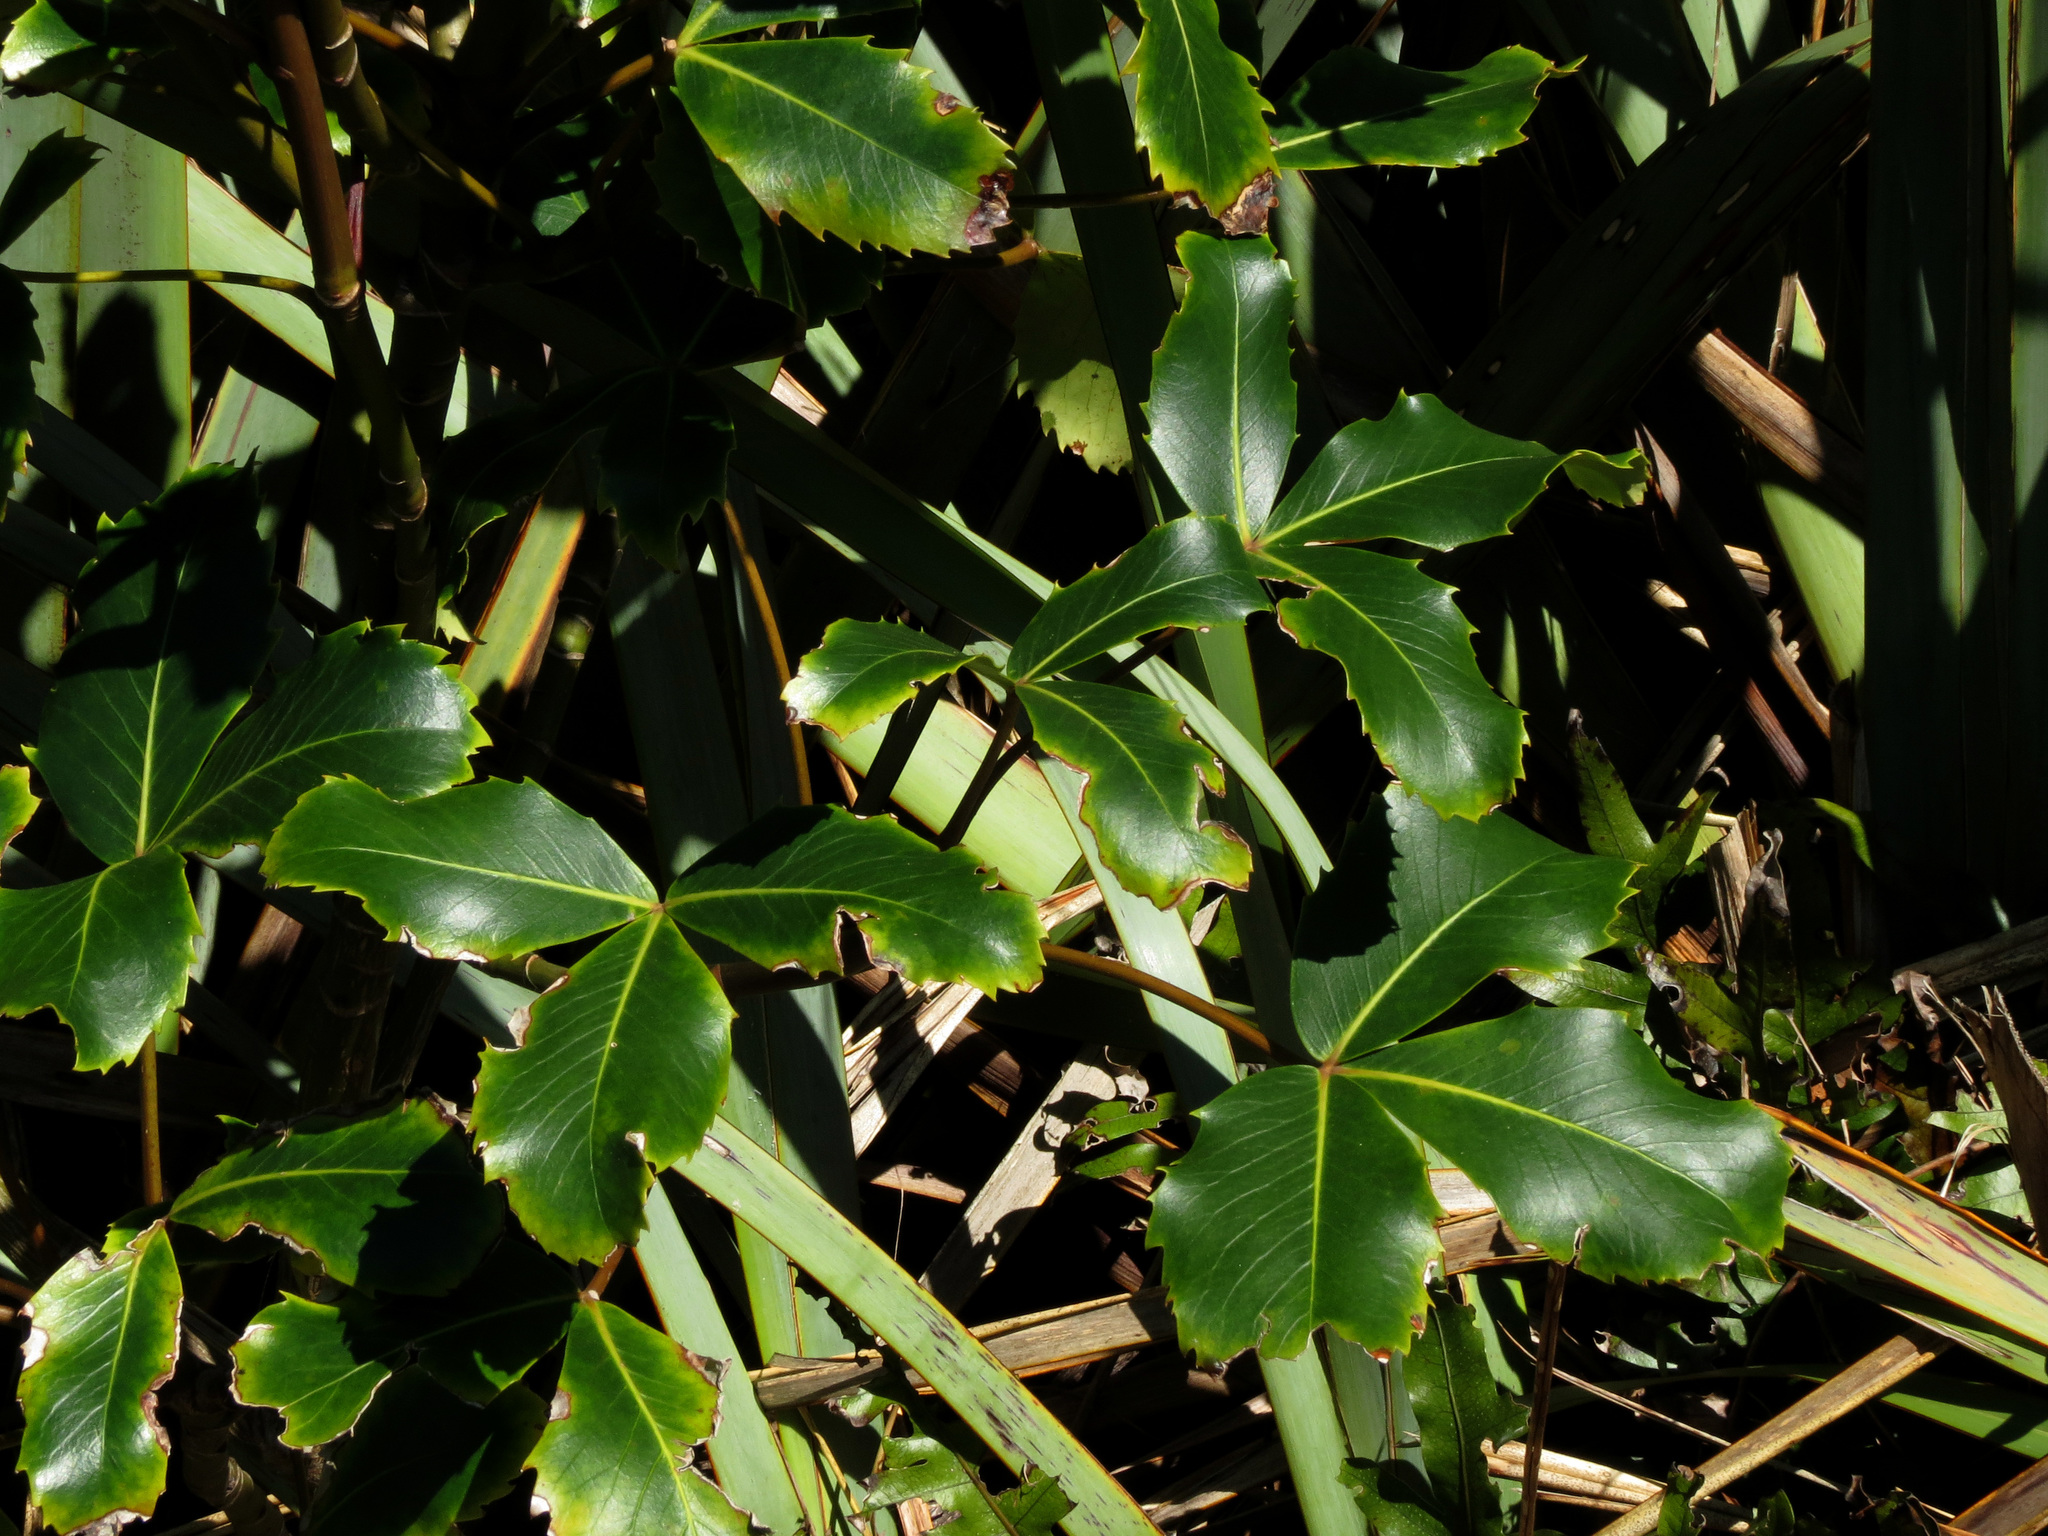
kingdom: Plantae
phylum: Tracheophyta
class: Magnoliopsida
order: Apiales
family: Araliaceae
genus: Neopanax
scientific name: Neopanax colensoi
